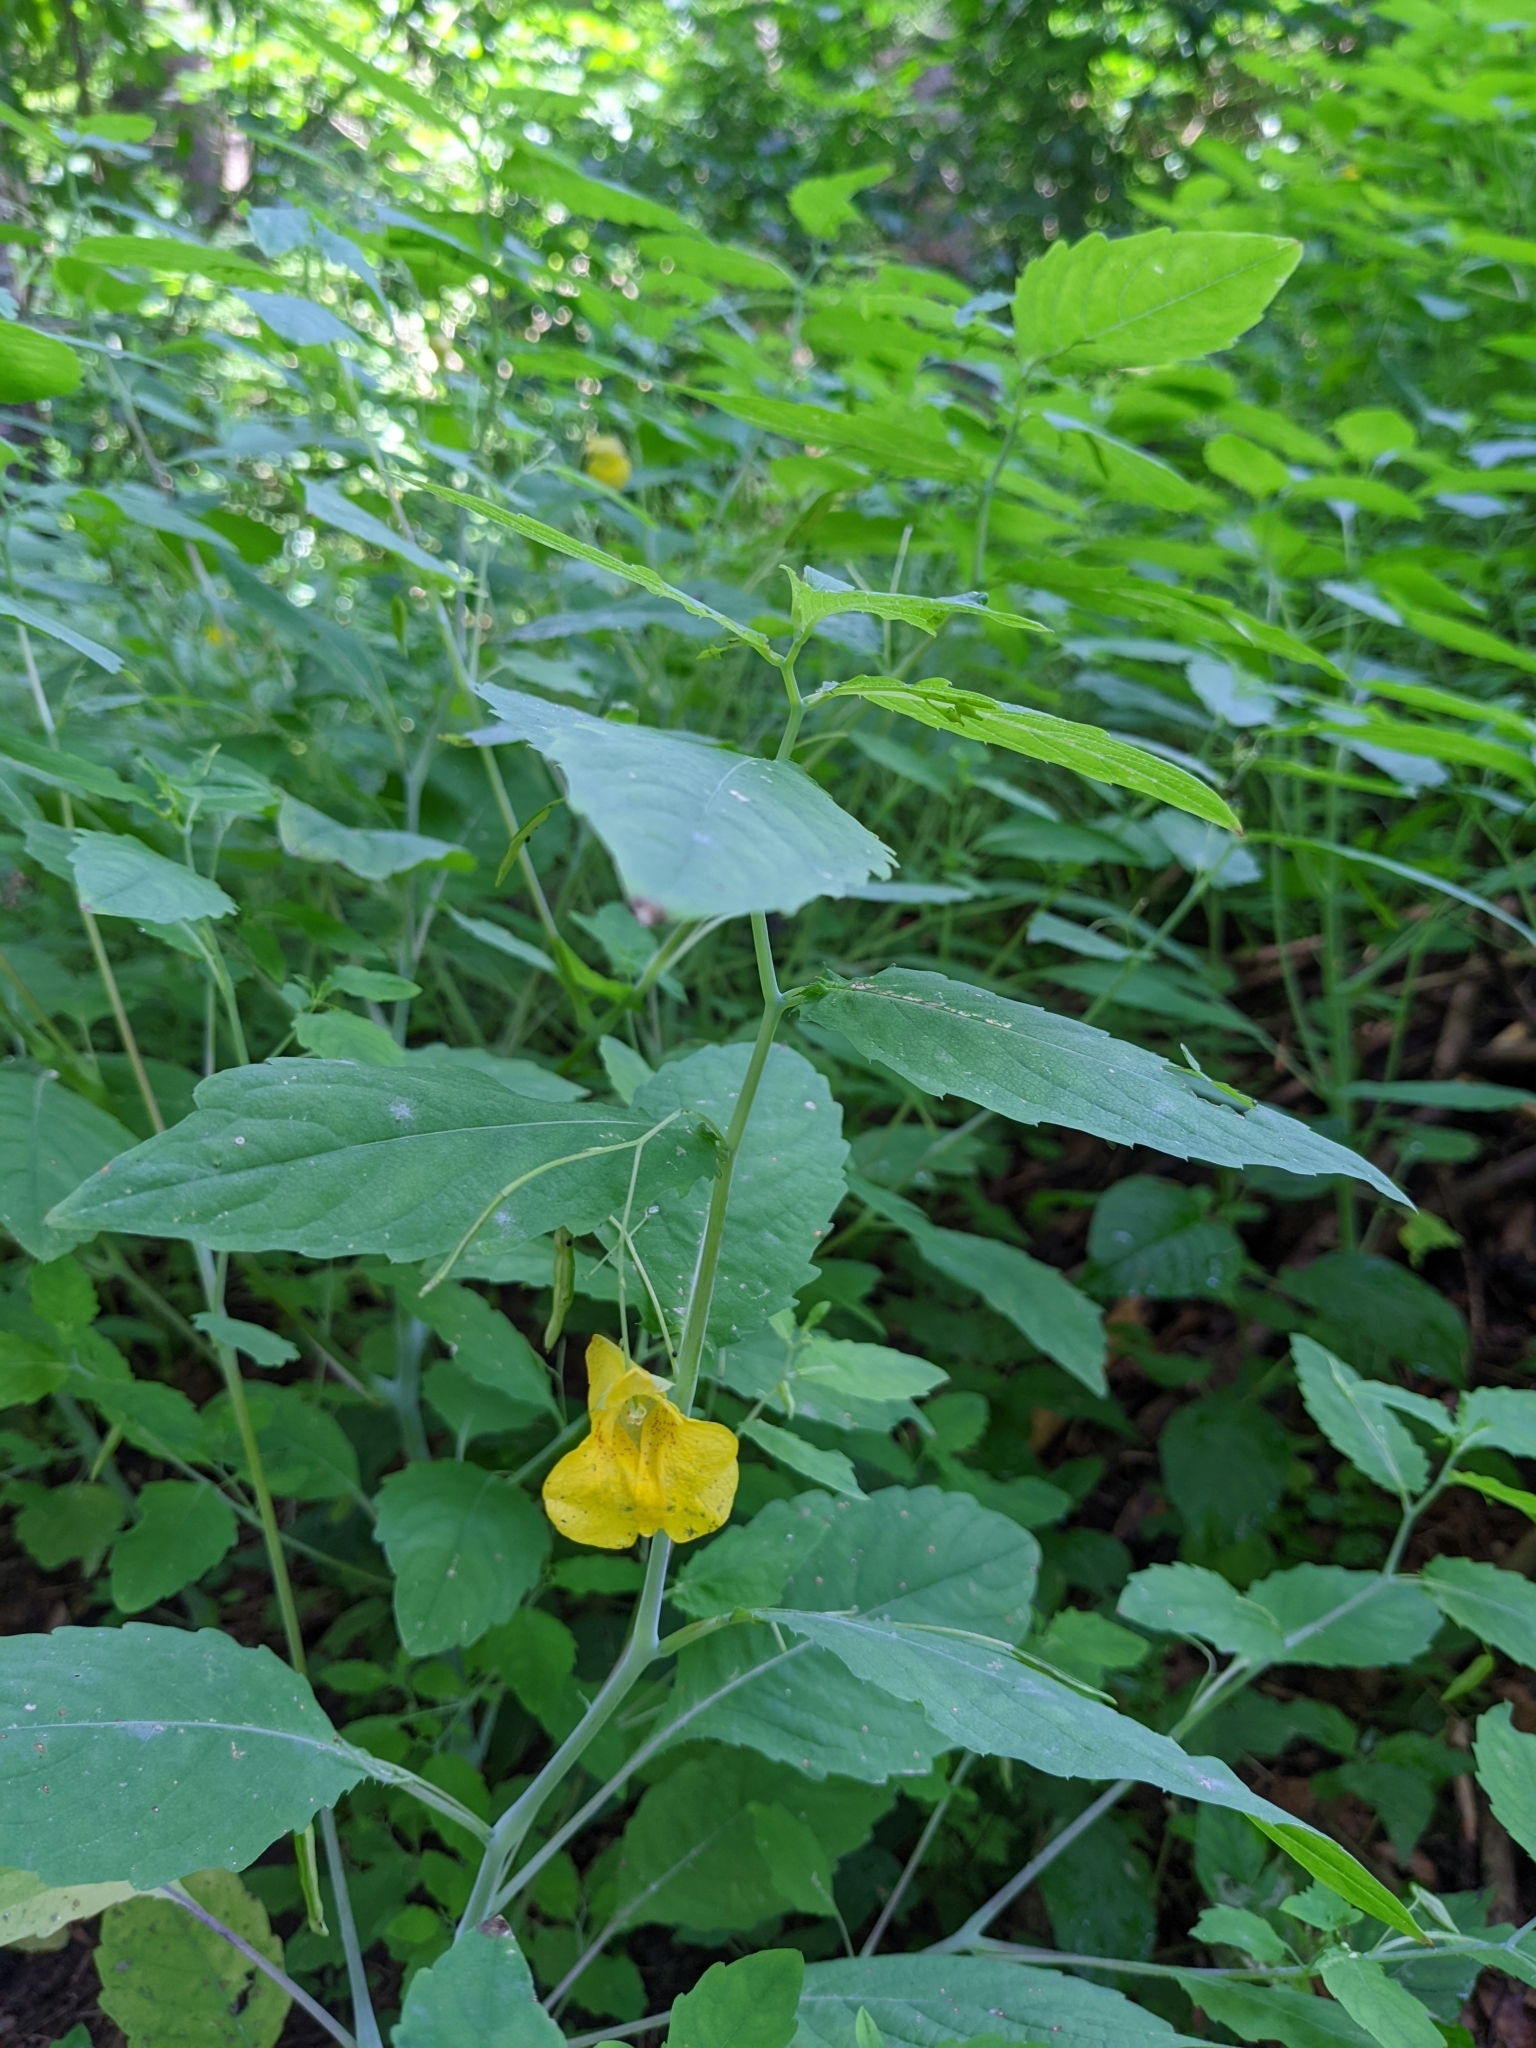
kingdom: Plantae
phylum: Tracheophyta
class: Magnoliopsida
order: Ericales
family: Balsaminaceae
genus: Impatiens
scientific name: Impatiens noli-tangere
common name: Touch-me-not balsam
